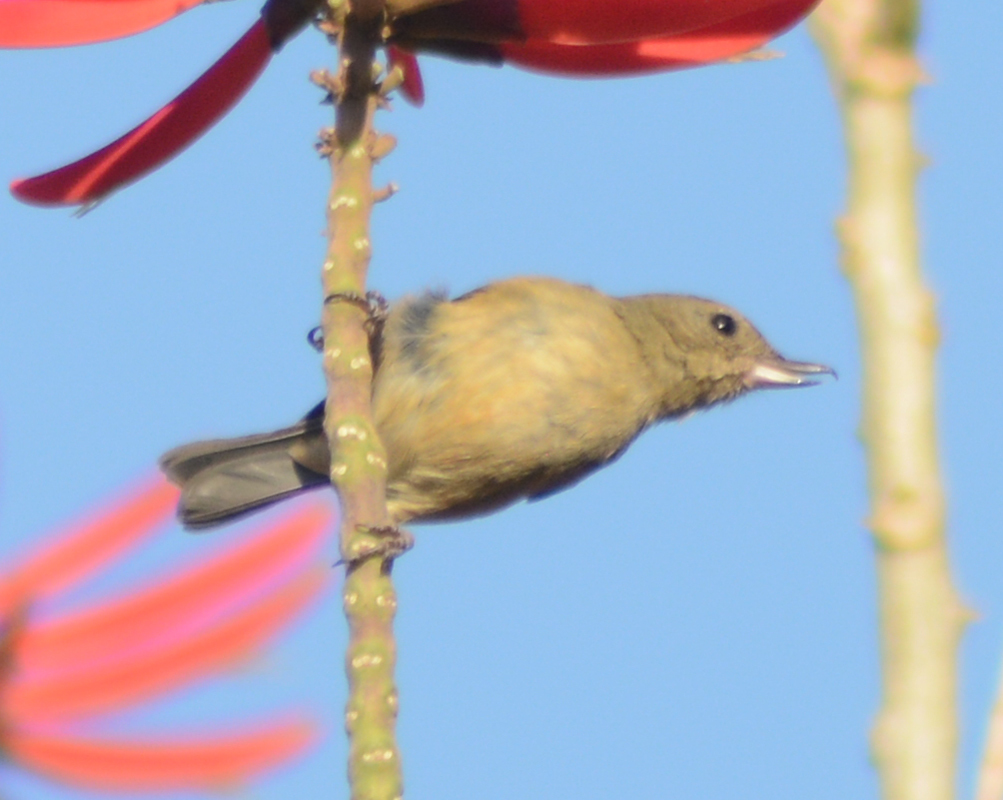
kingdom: Animalia
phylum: Chordata
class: Aves
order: Passeriformes
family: Thraupidae
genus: Diglossa
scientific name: Diglossa baritula
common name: Cinnamon-bellied flowerpiercer
